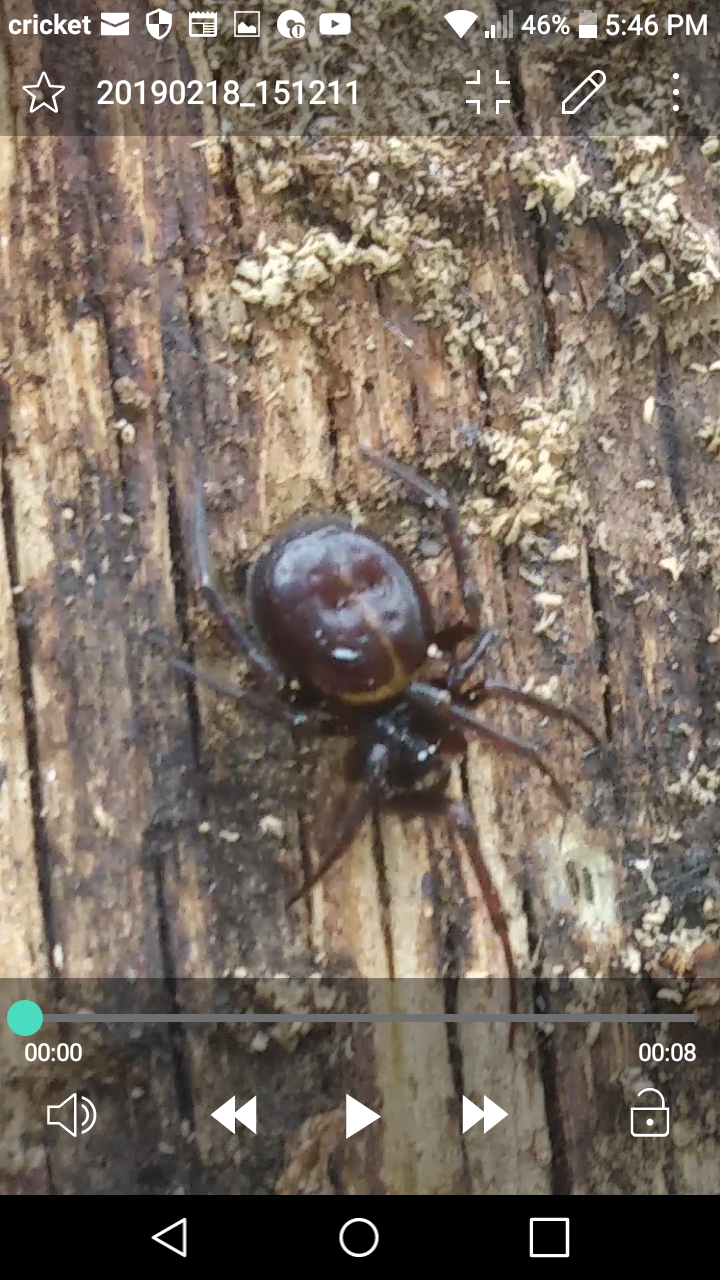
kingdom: Animalia
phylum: Arthropoda
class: Arachnida
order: Araneae
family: Theridiidae
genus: Steatoda
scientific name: Steatoda borealis
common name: Boreal combfoot
